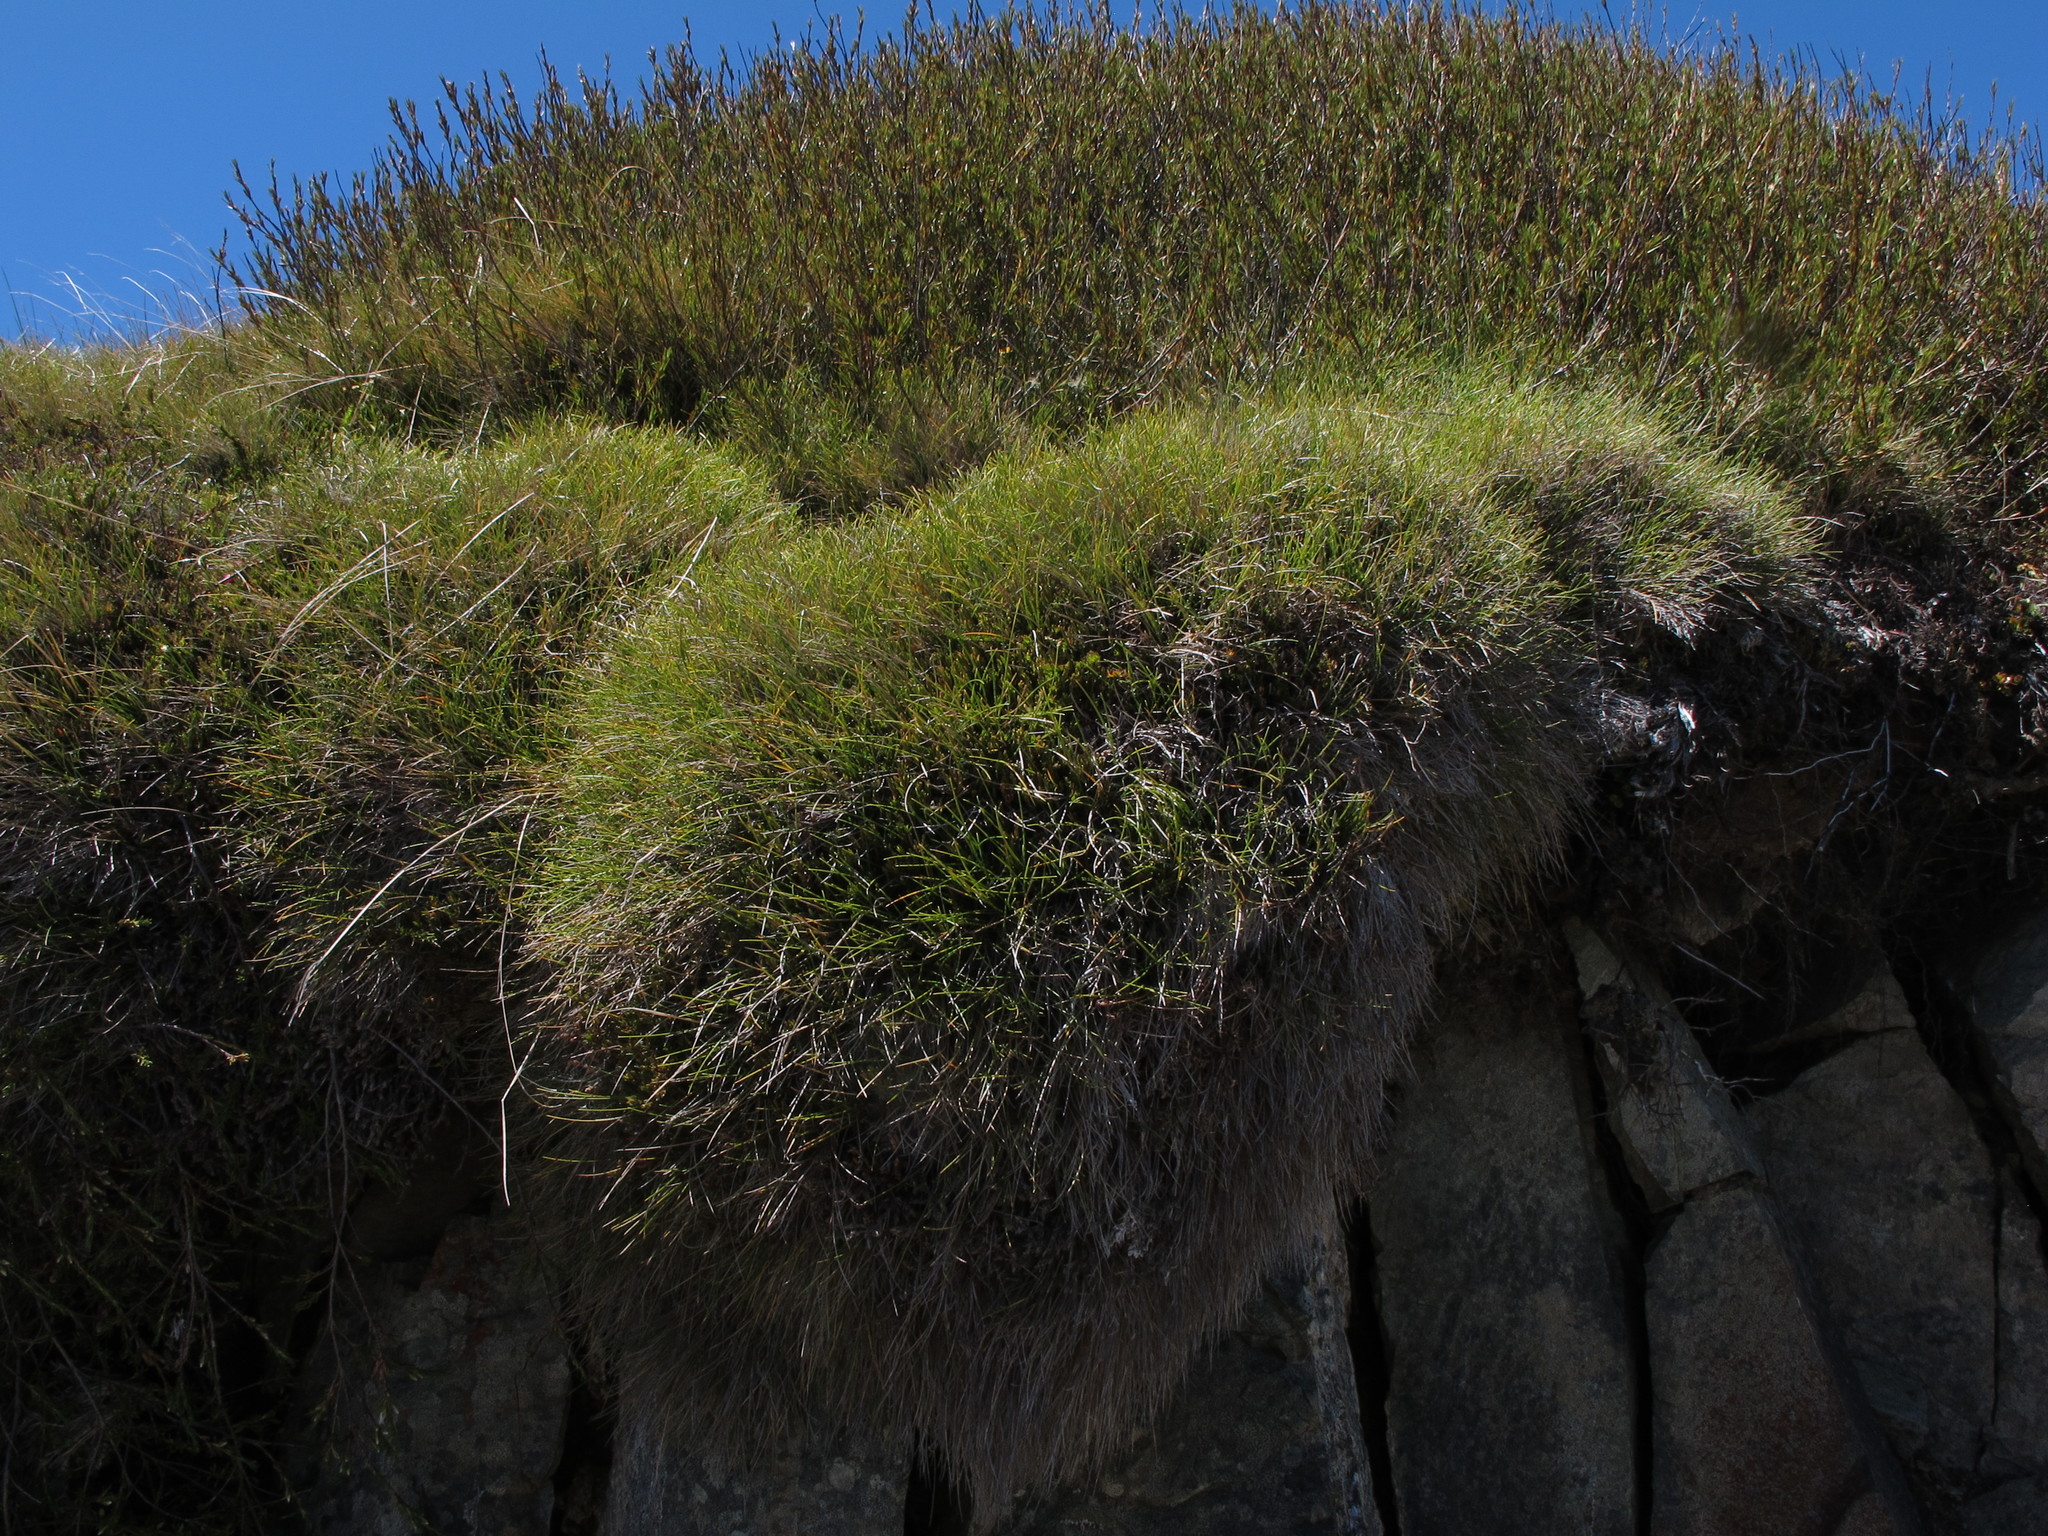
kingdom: Plantae
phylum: Tracheophyta
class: Liliopsida
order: Poales
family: Poaceae
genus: Chionochloa
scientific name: Chionochloa australis
